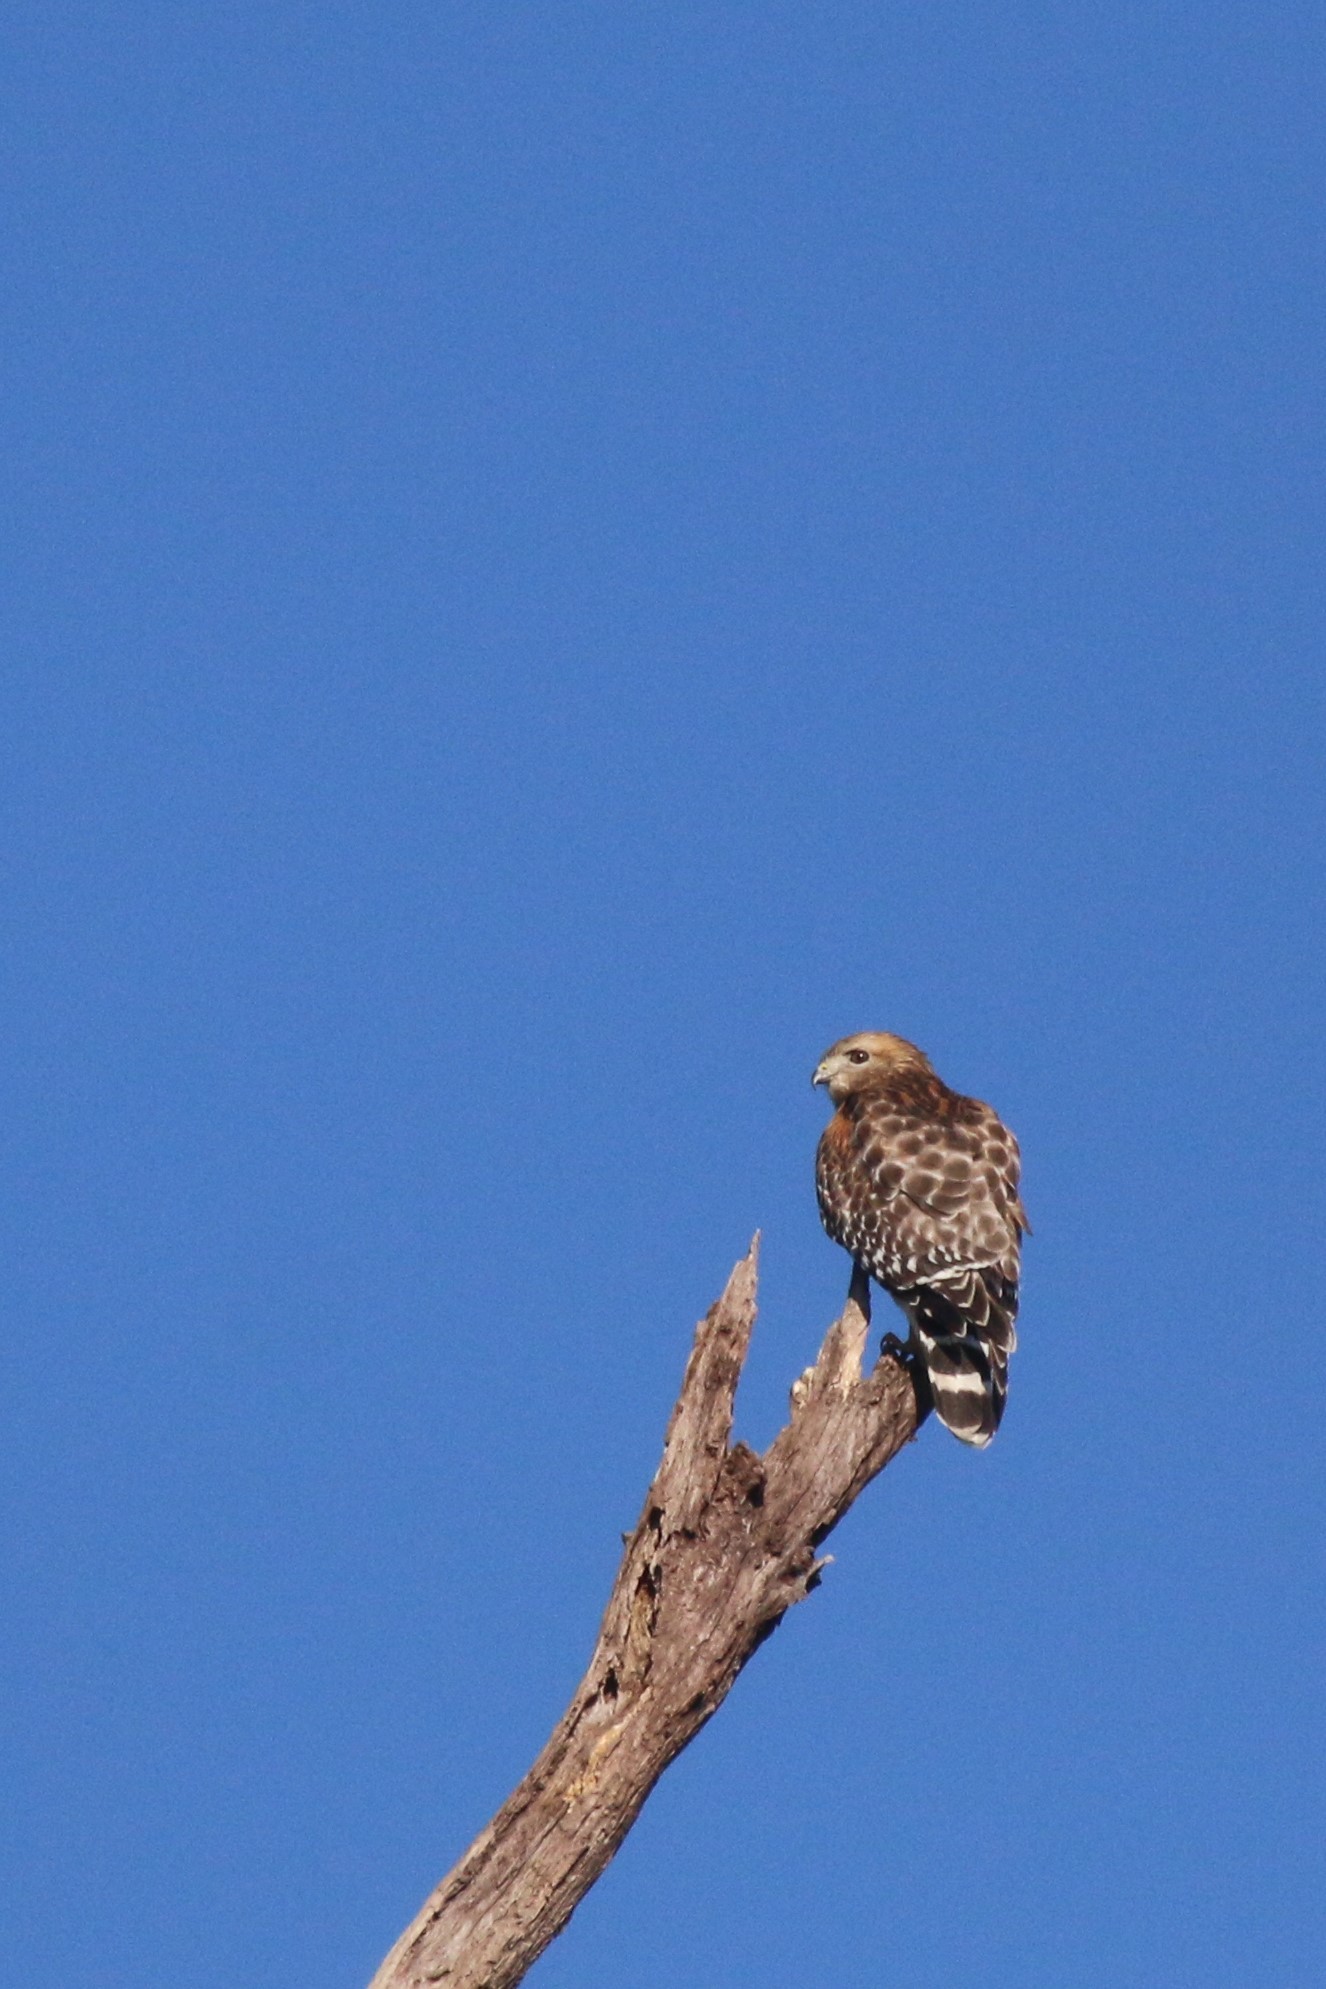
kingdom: Animalia
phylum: Chordata
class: Aves
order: Accipitriformes
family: Accipitridae
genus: Buteo
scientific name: Buteo lineatus
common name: Red-shouldered hawk
